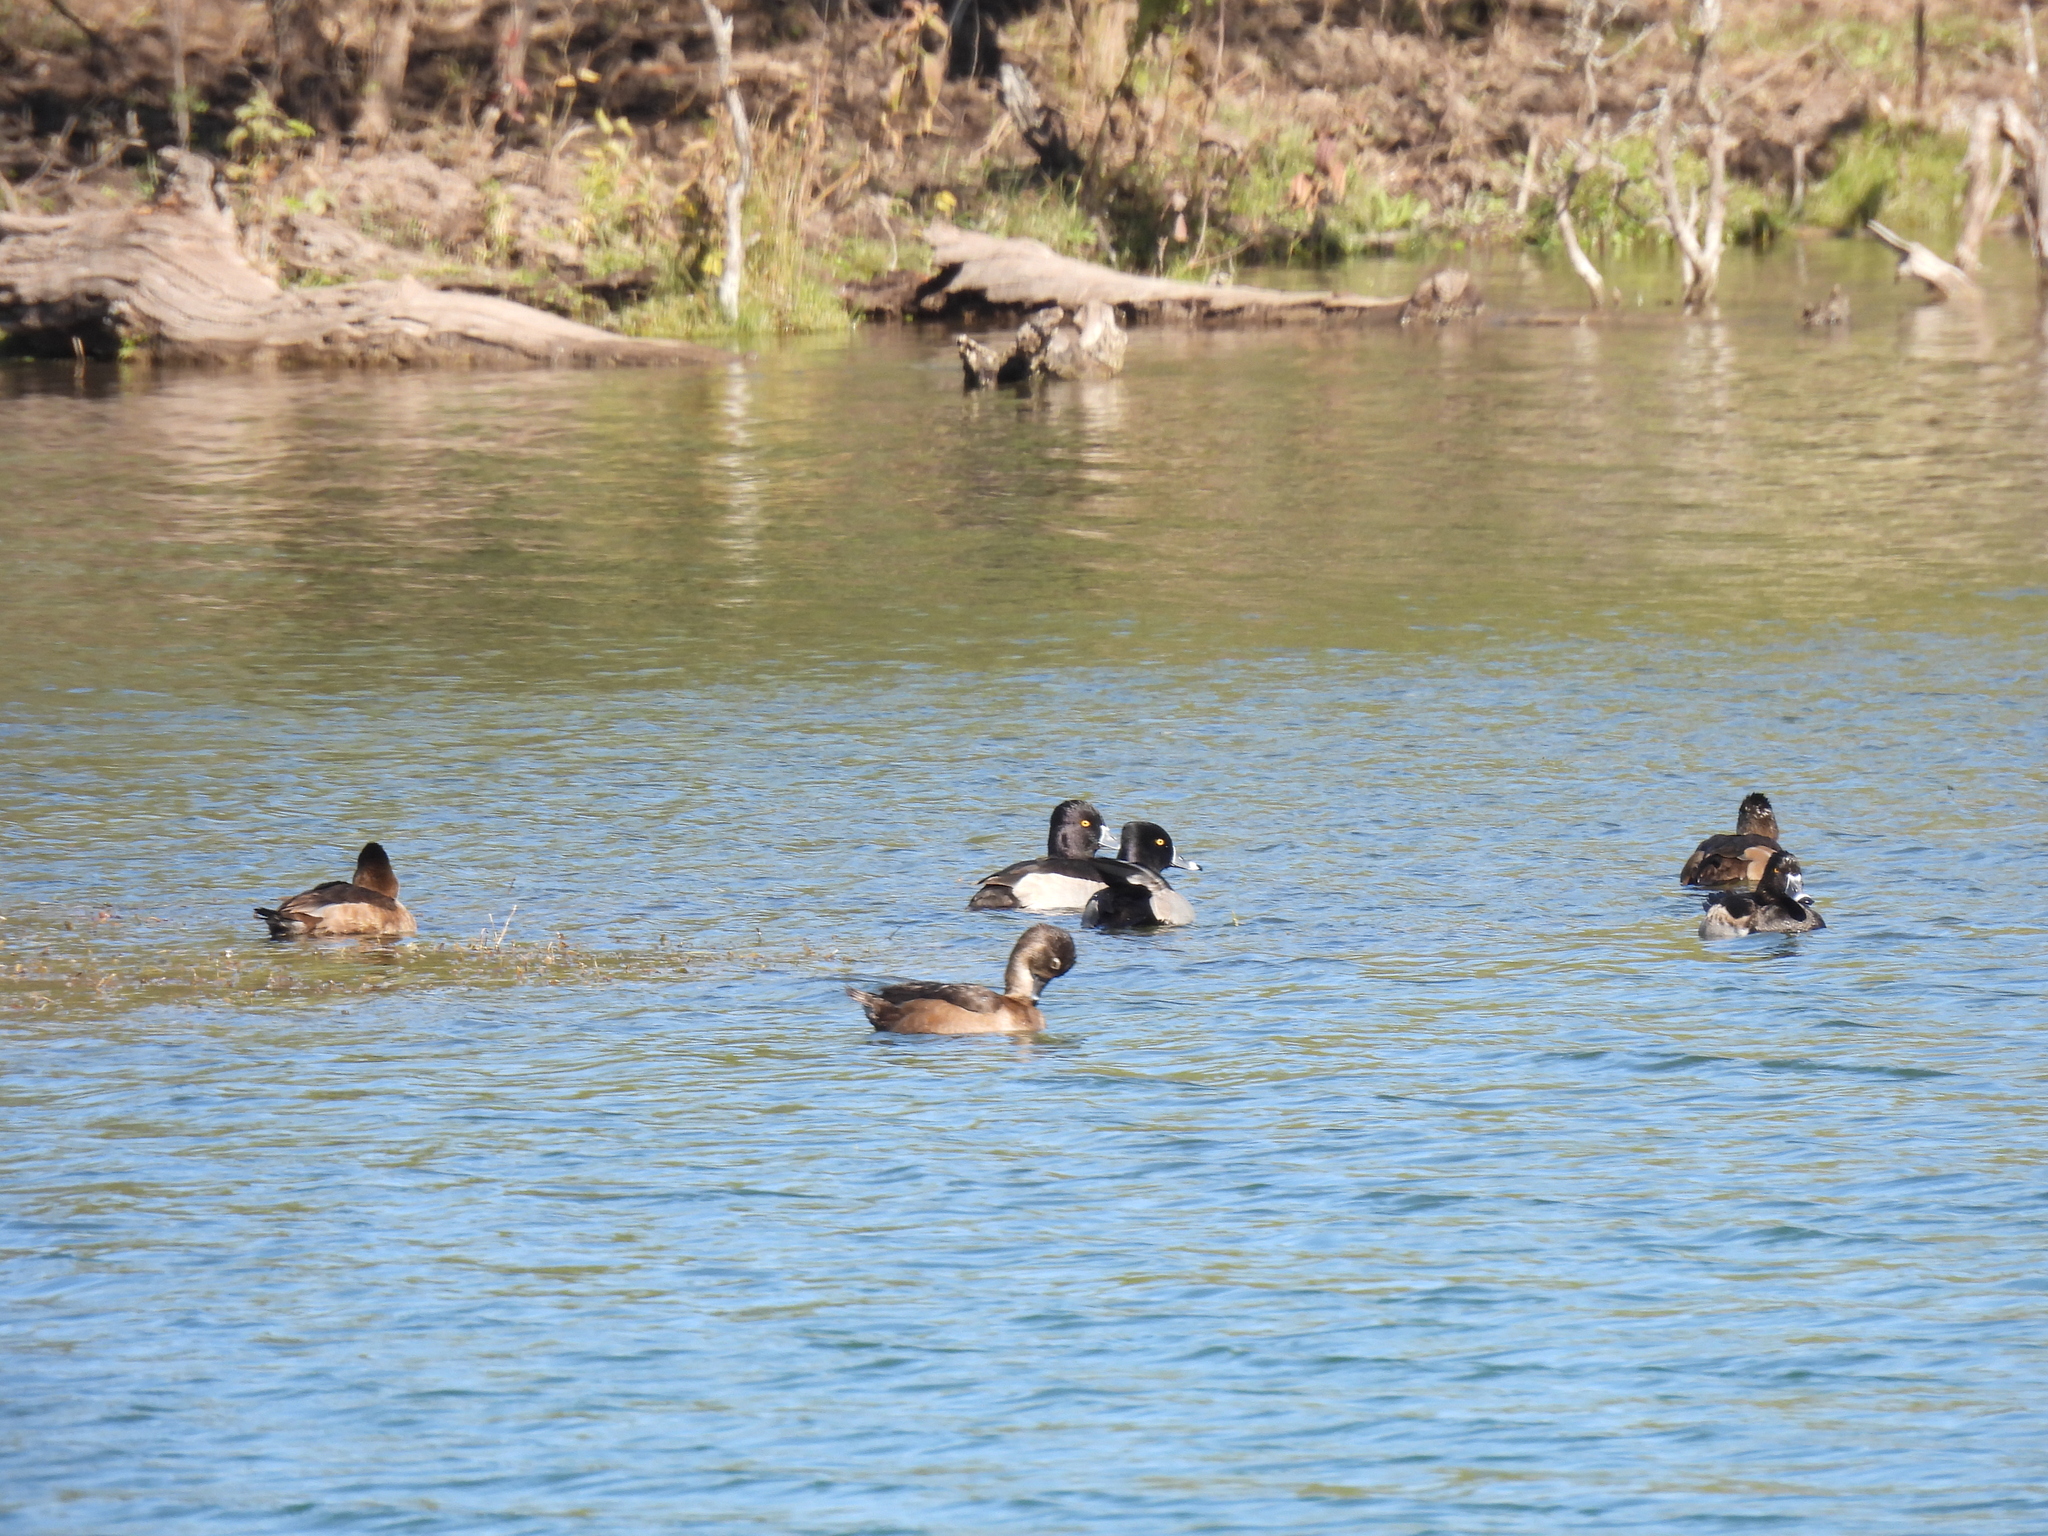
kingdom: Animalia
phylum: Chordata
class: Aves
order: Anseriformes
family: Anatidae
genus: Aythya
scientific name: Aythya collaris
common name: Ring-necked duck
